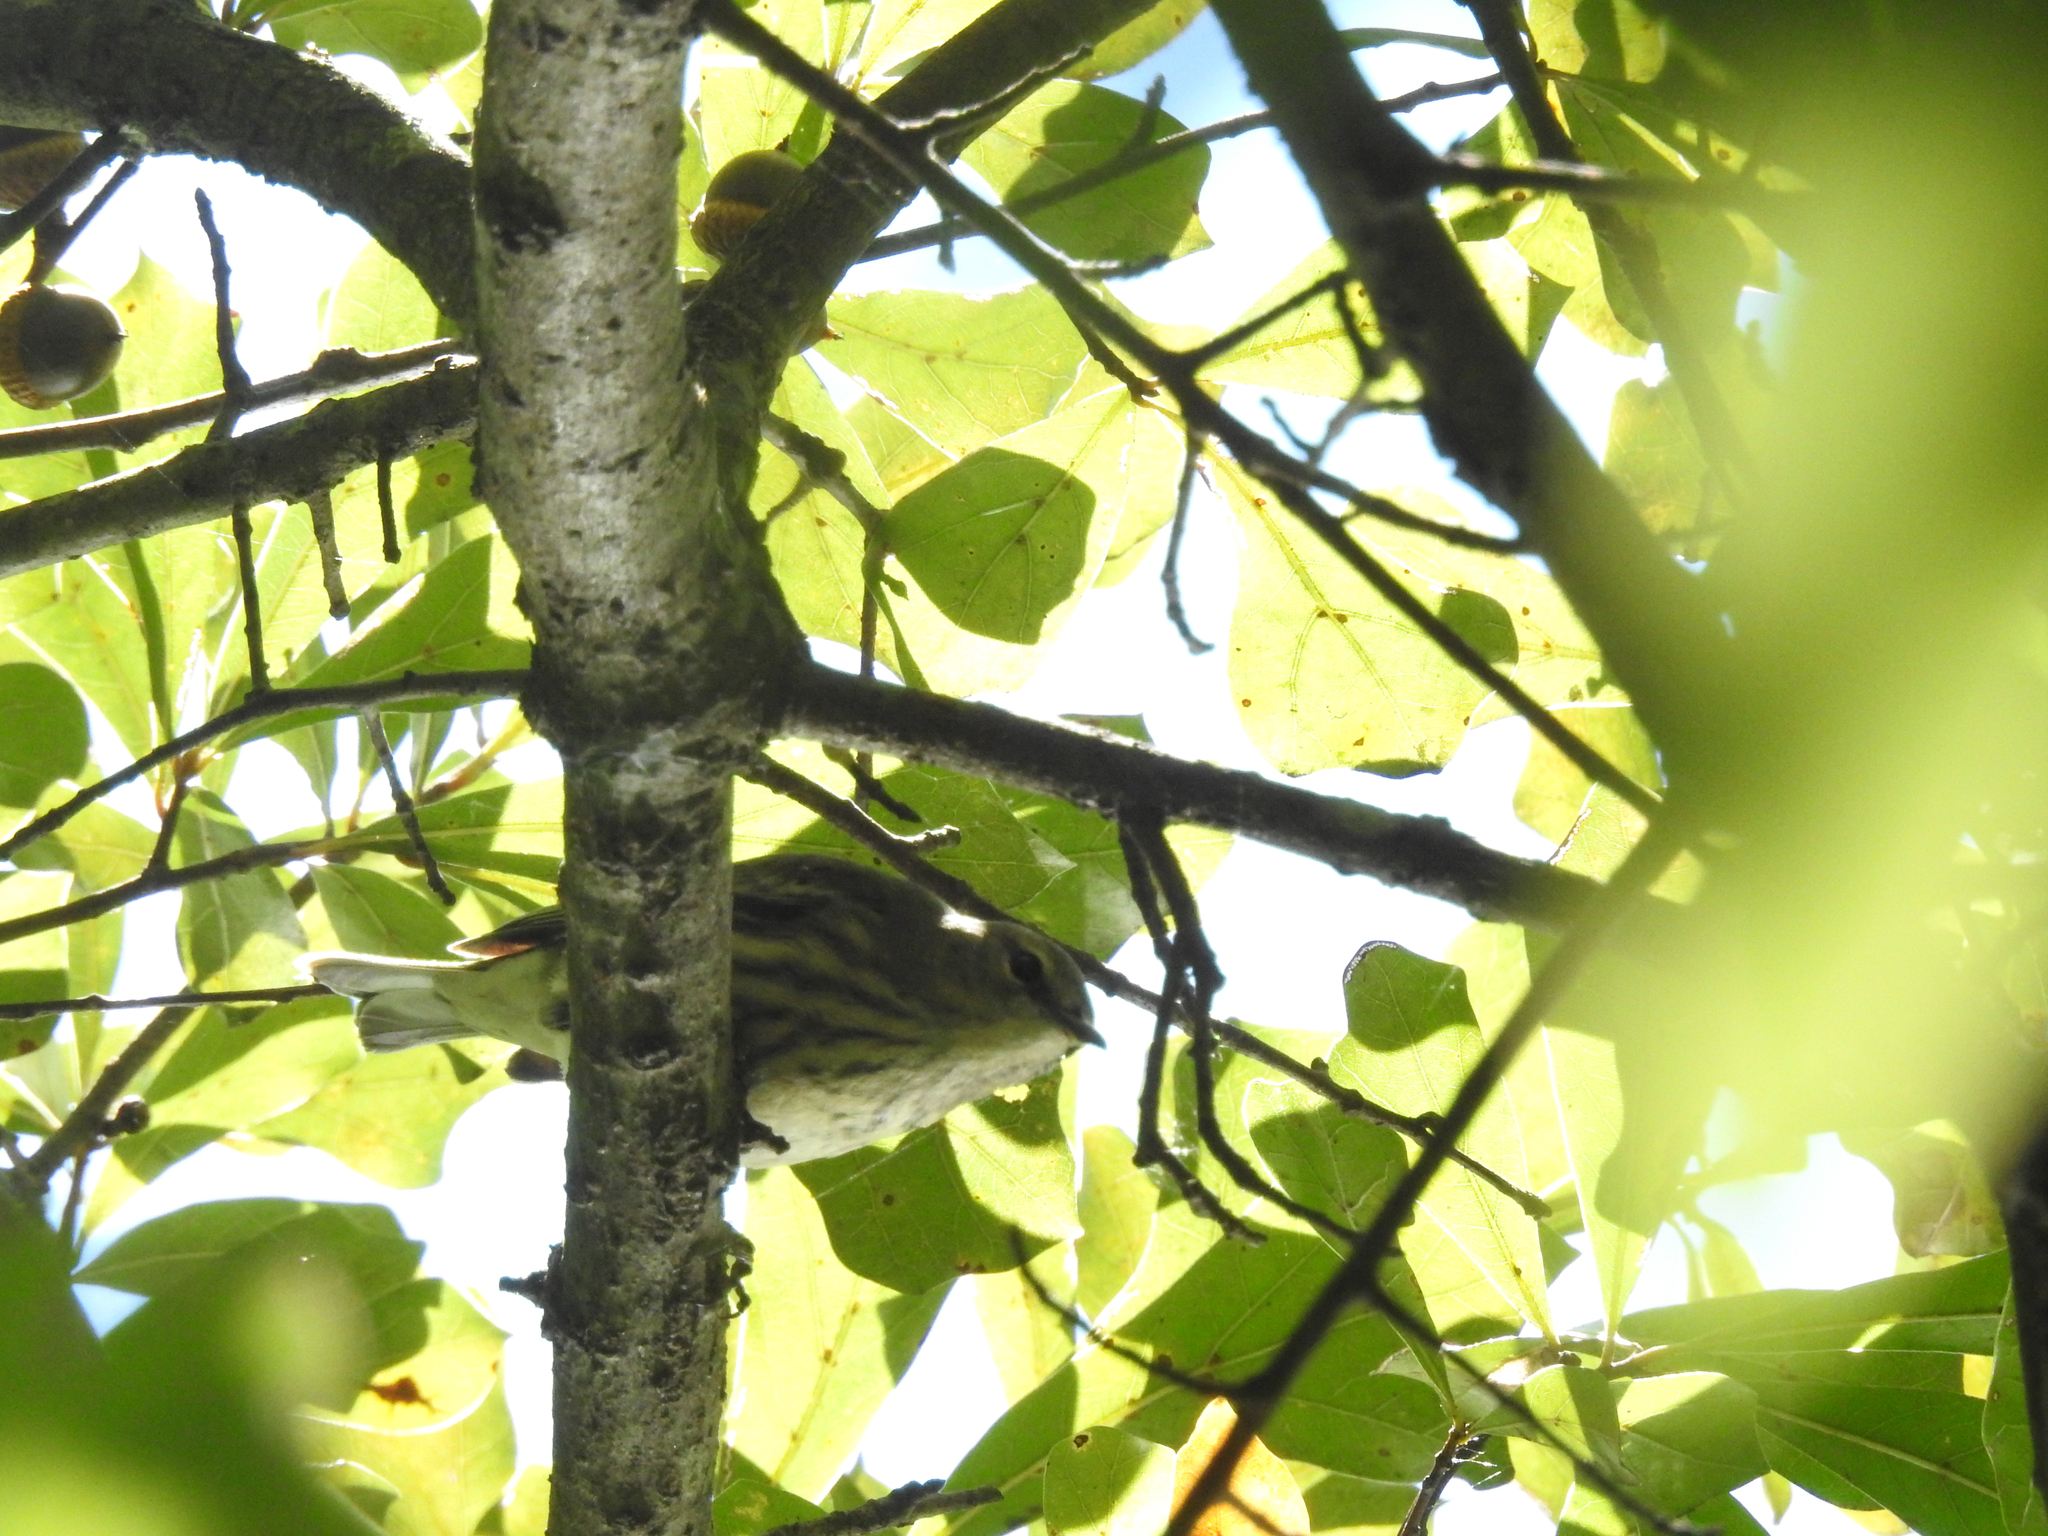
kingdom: Animalia
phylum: Chordata
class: Aves
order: Passeriformes
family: Parulidae
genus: Setophaga
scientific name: Setophaga tigrina
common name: Cape may warbler
